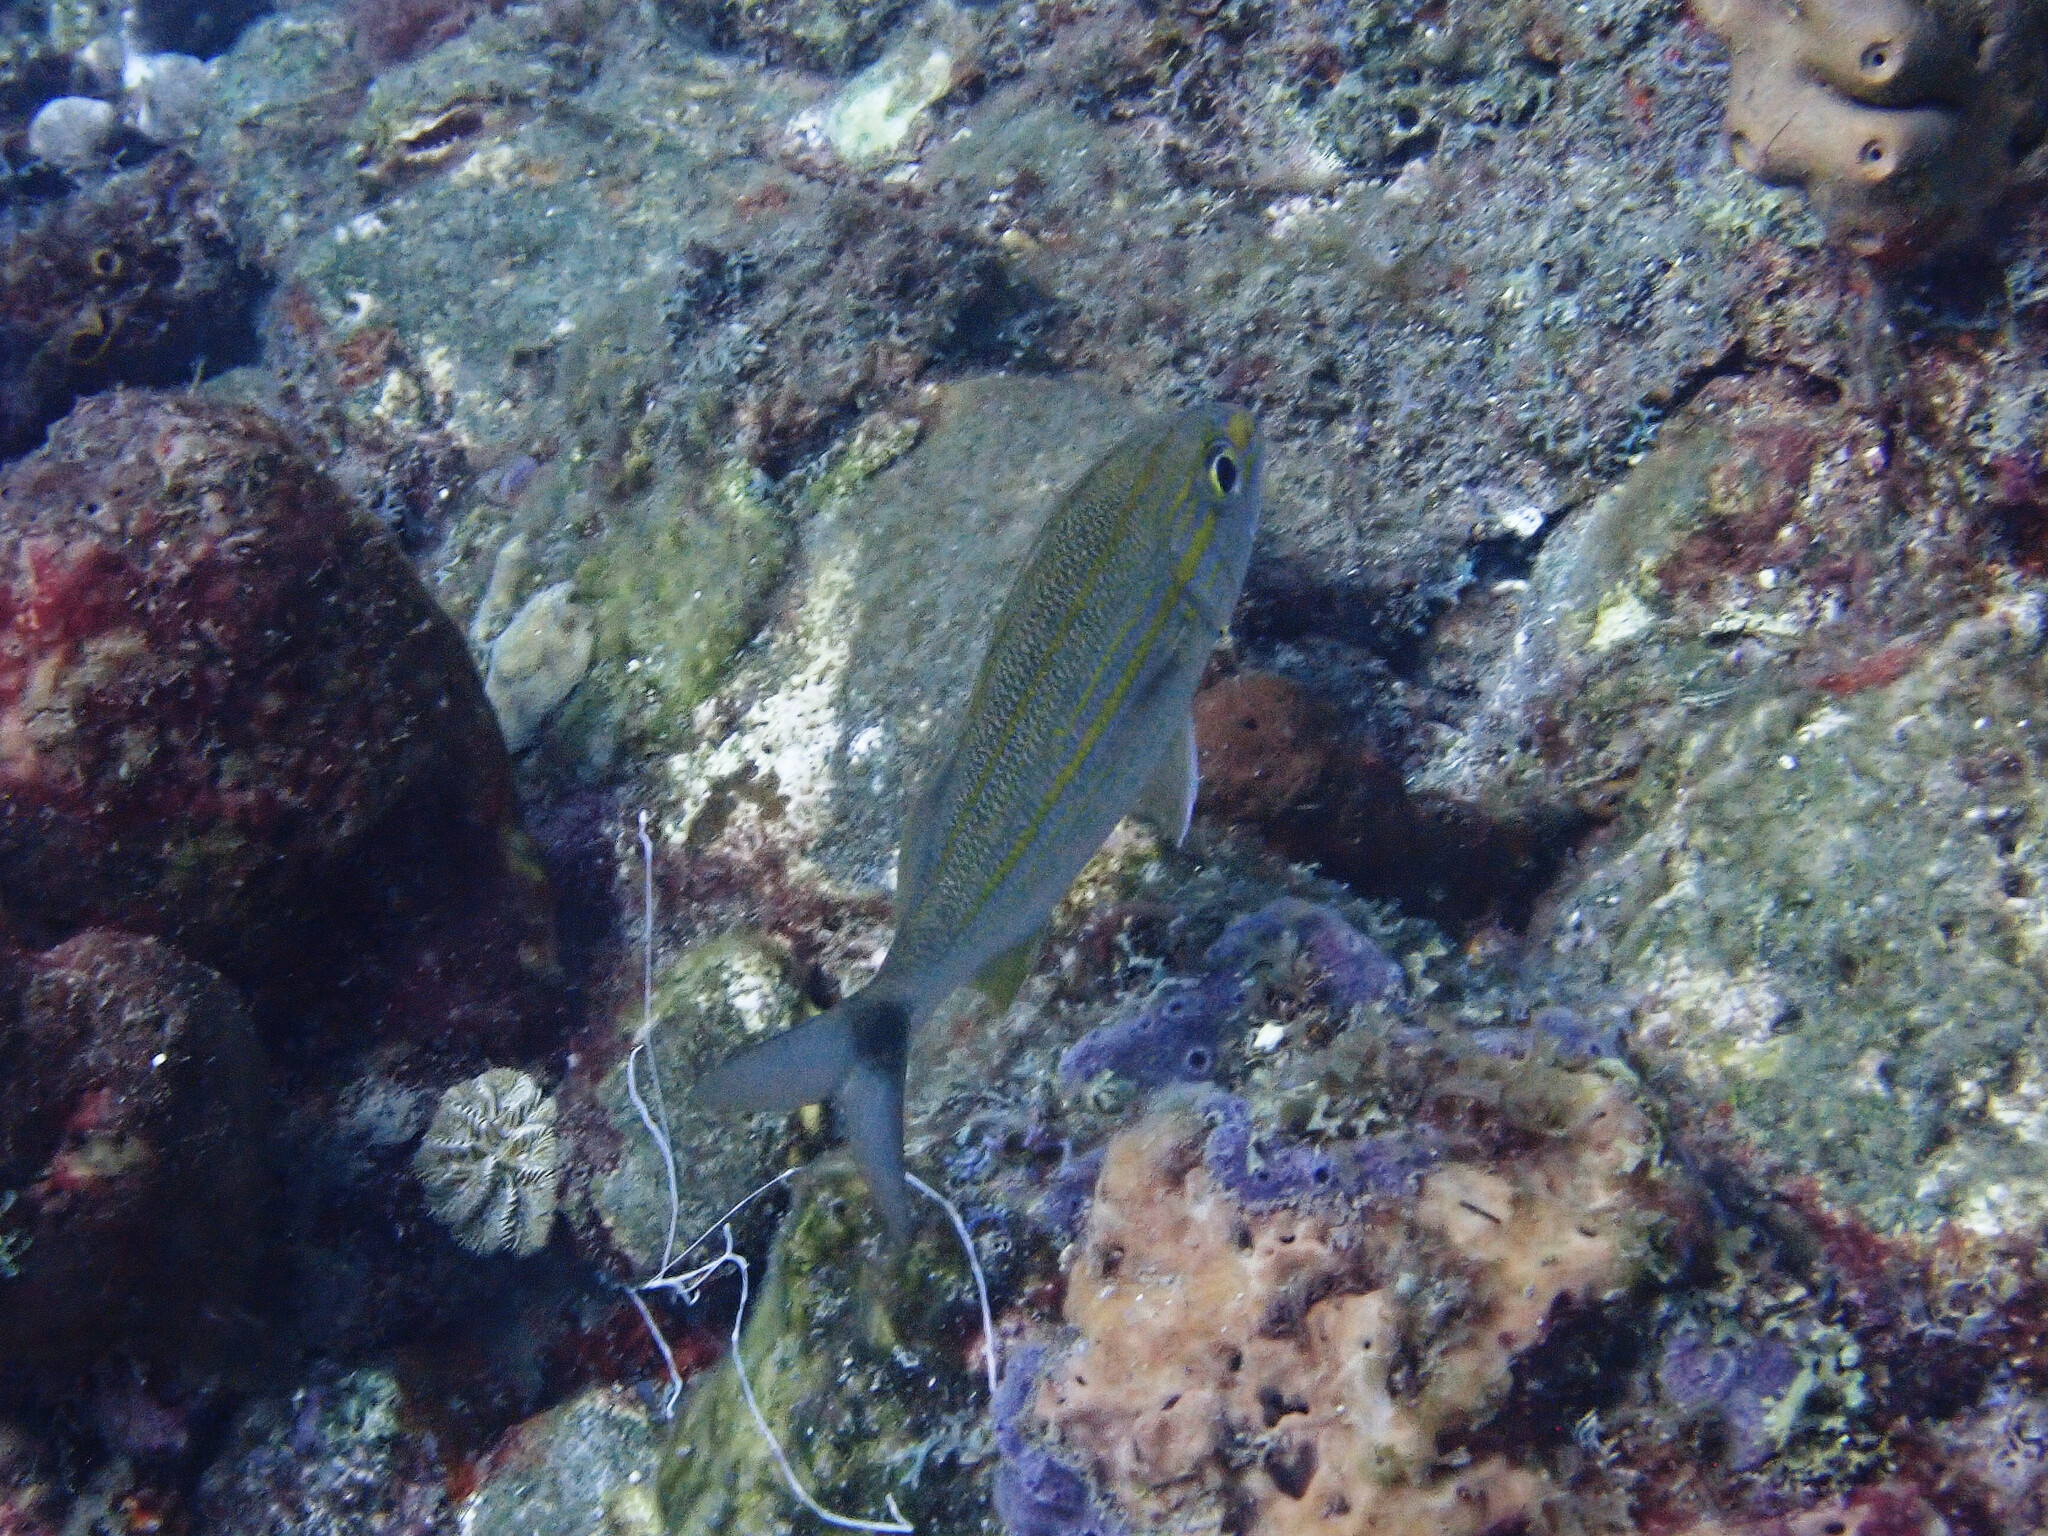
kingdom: Animalia
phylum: Chordata
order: Perciformes
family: Haemulidae
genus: Haemulon
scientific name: Haemulon aurolineatum
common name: Tomtate
